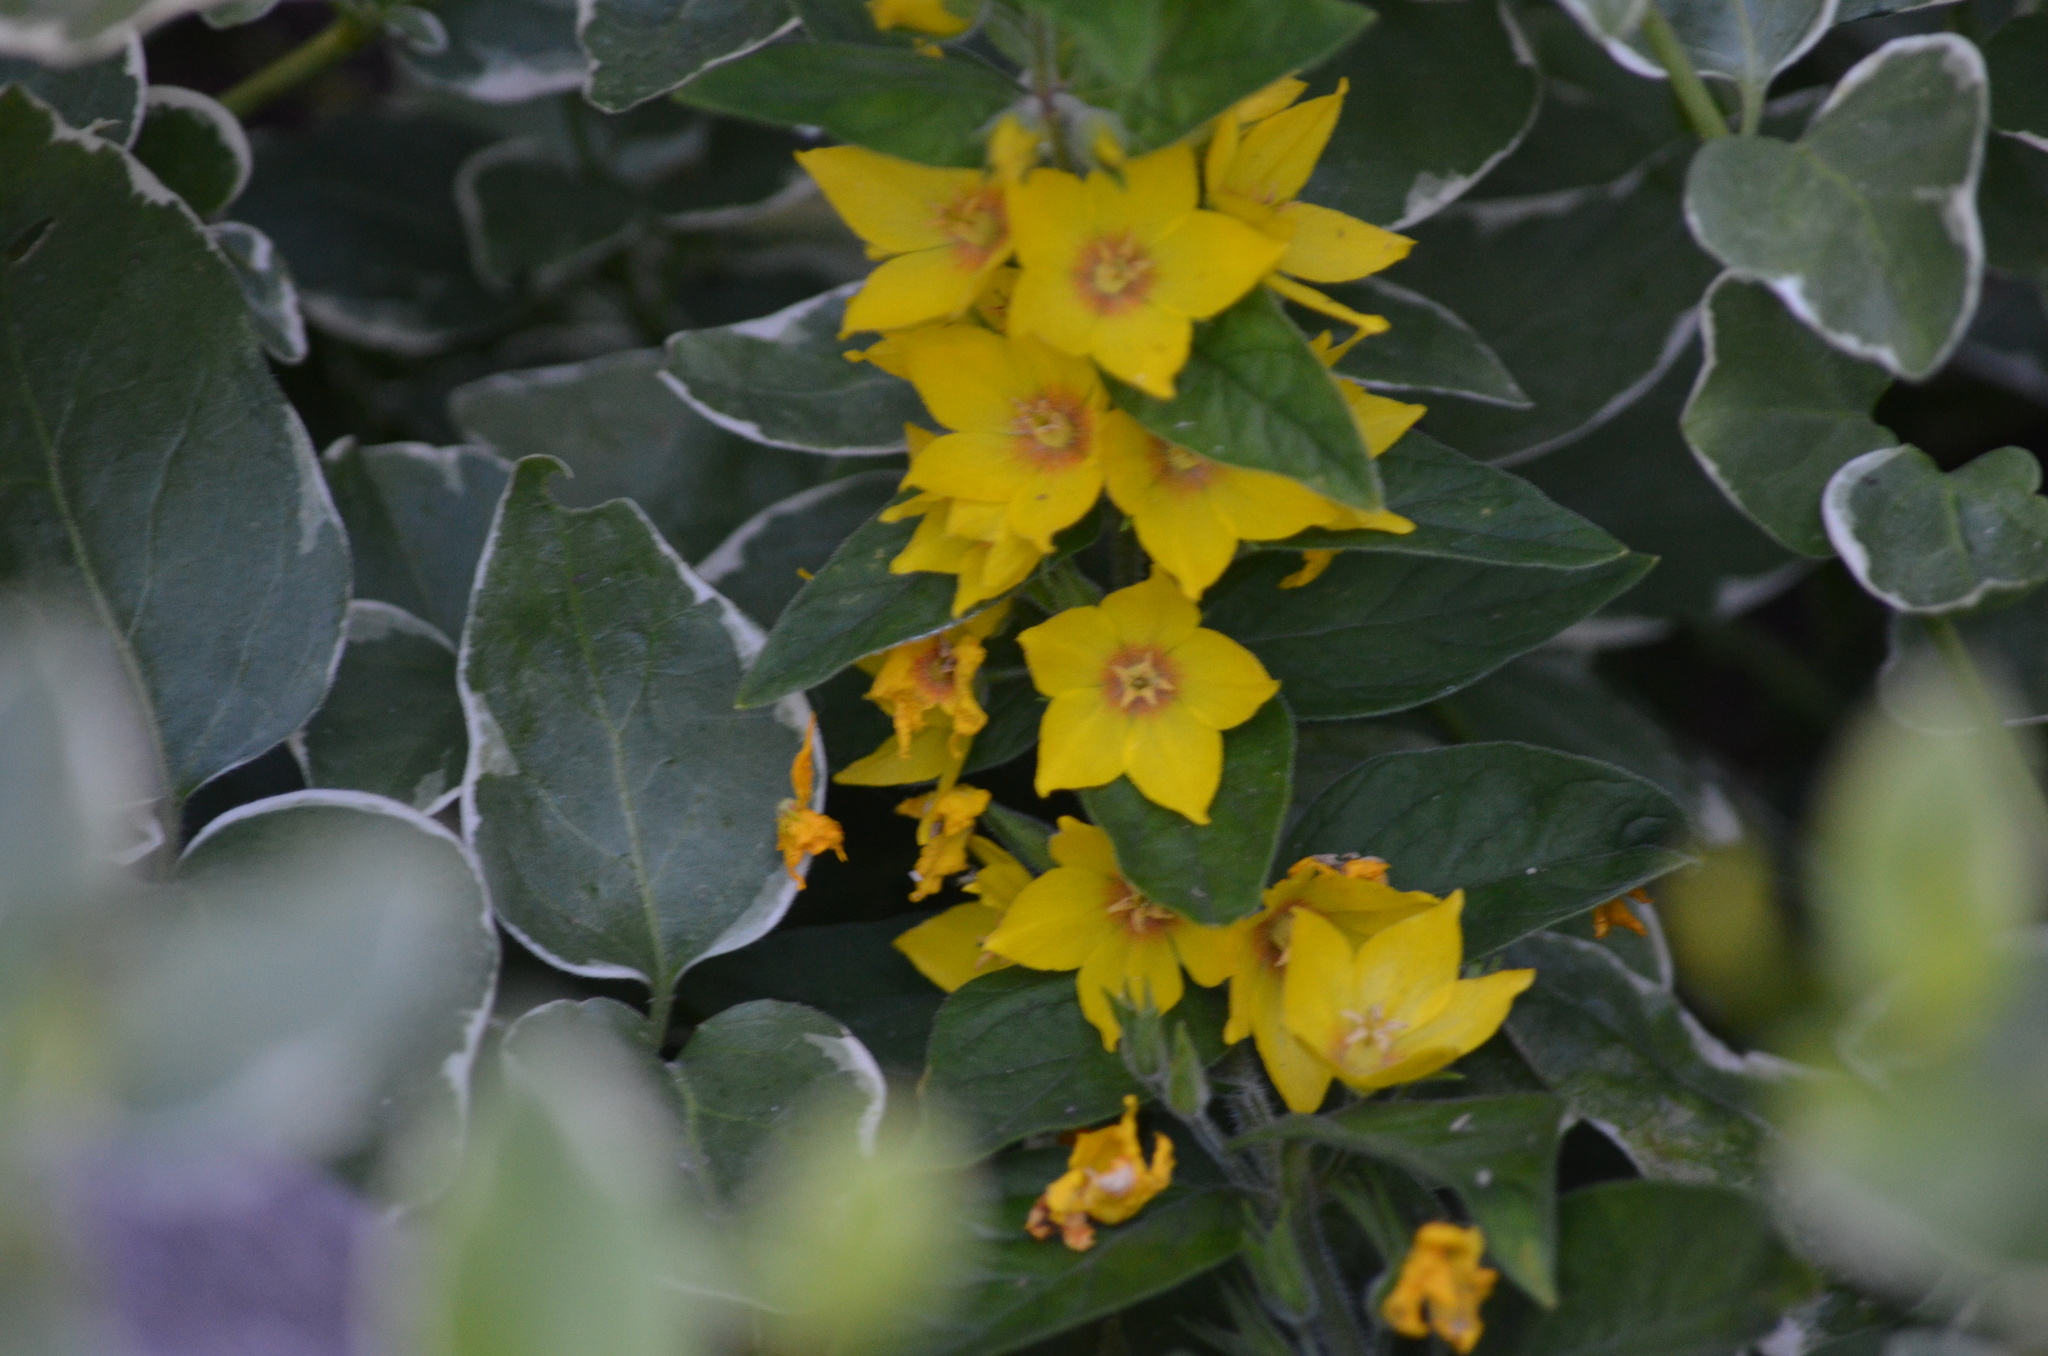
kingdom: Plantae
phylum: Tracheophyta
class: Magnoliopsida
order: Ericales
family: Primulaceae
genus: Lysimachia
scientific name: Lysimachia punctata
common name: Dotted loosestrife
